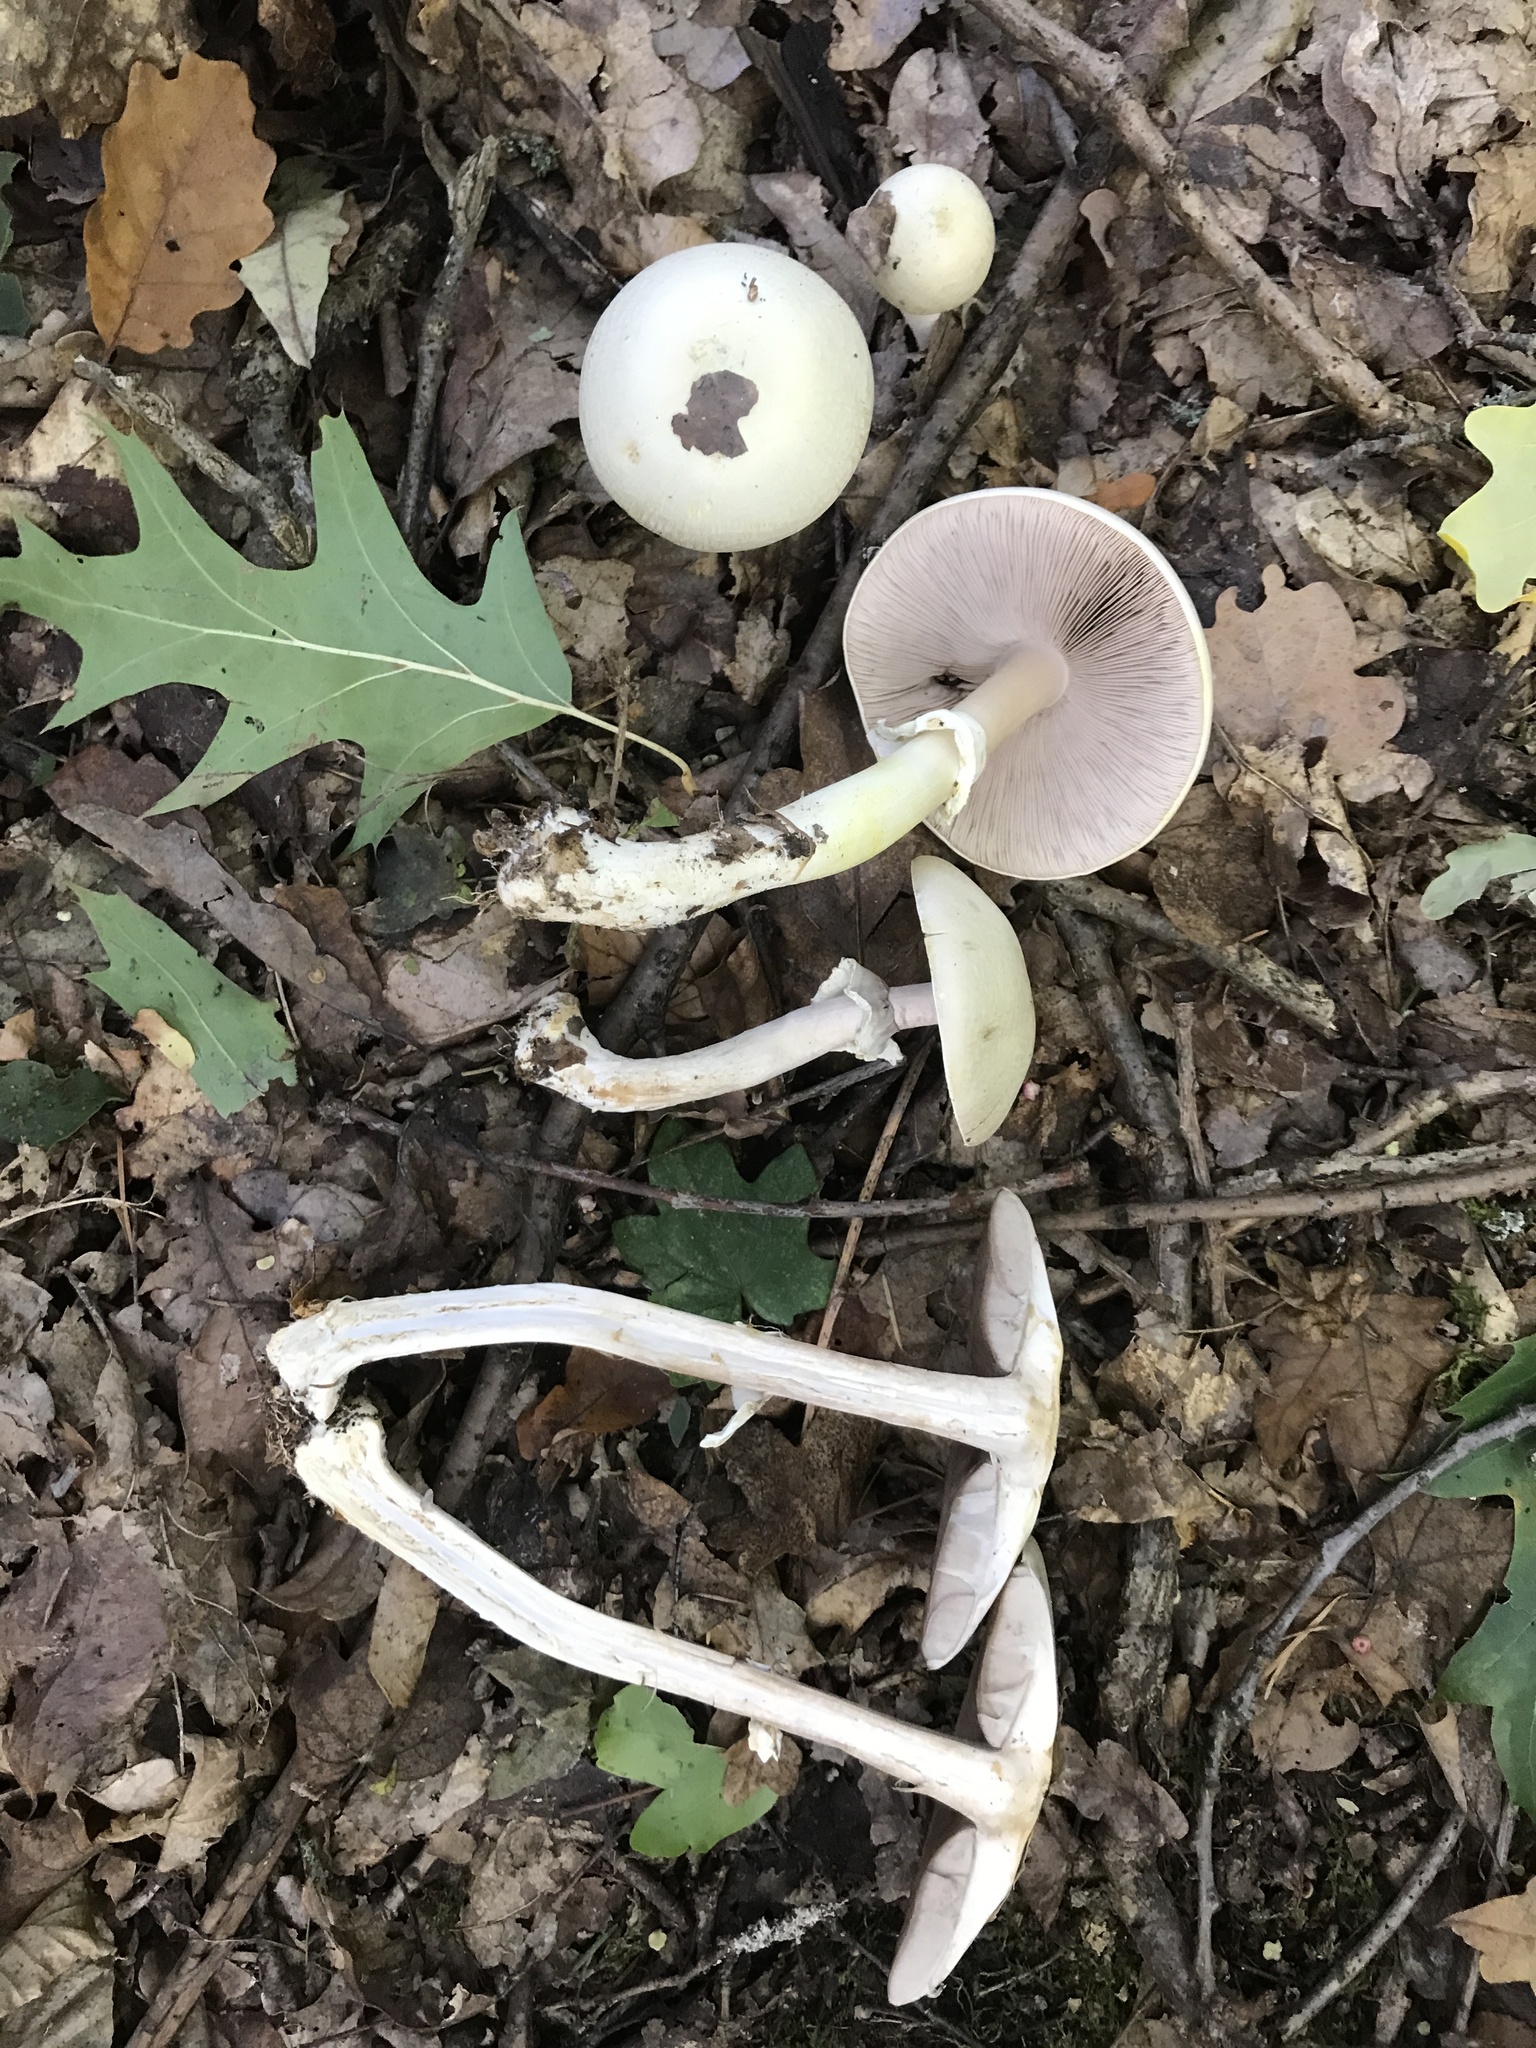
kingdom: Fungi
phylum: Basidiomycota
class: Agaricomycetes
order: Agaricales
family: Agaricaceae
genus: Agaricus
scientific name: Agaricus sylvicola
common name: Wood mushroom
